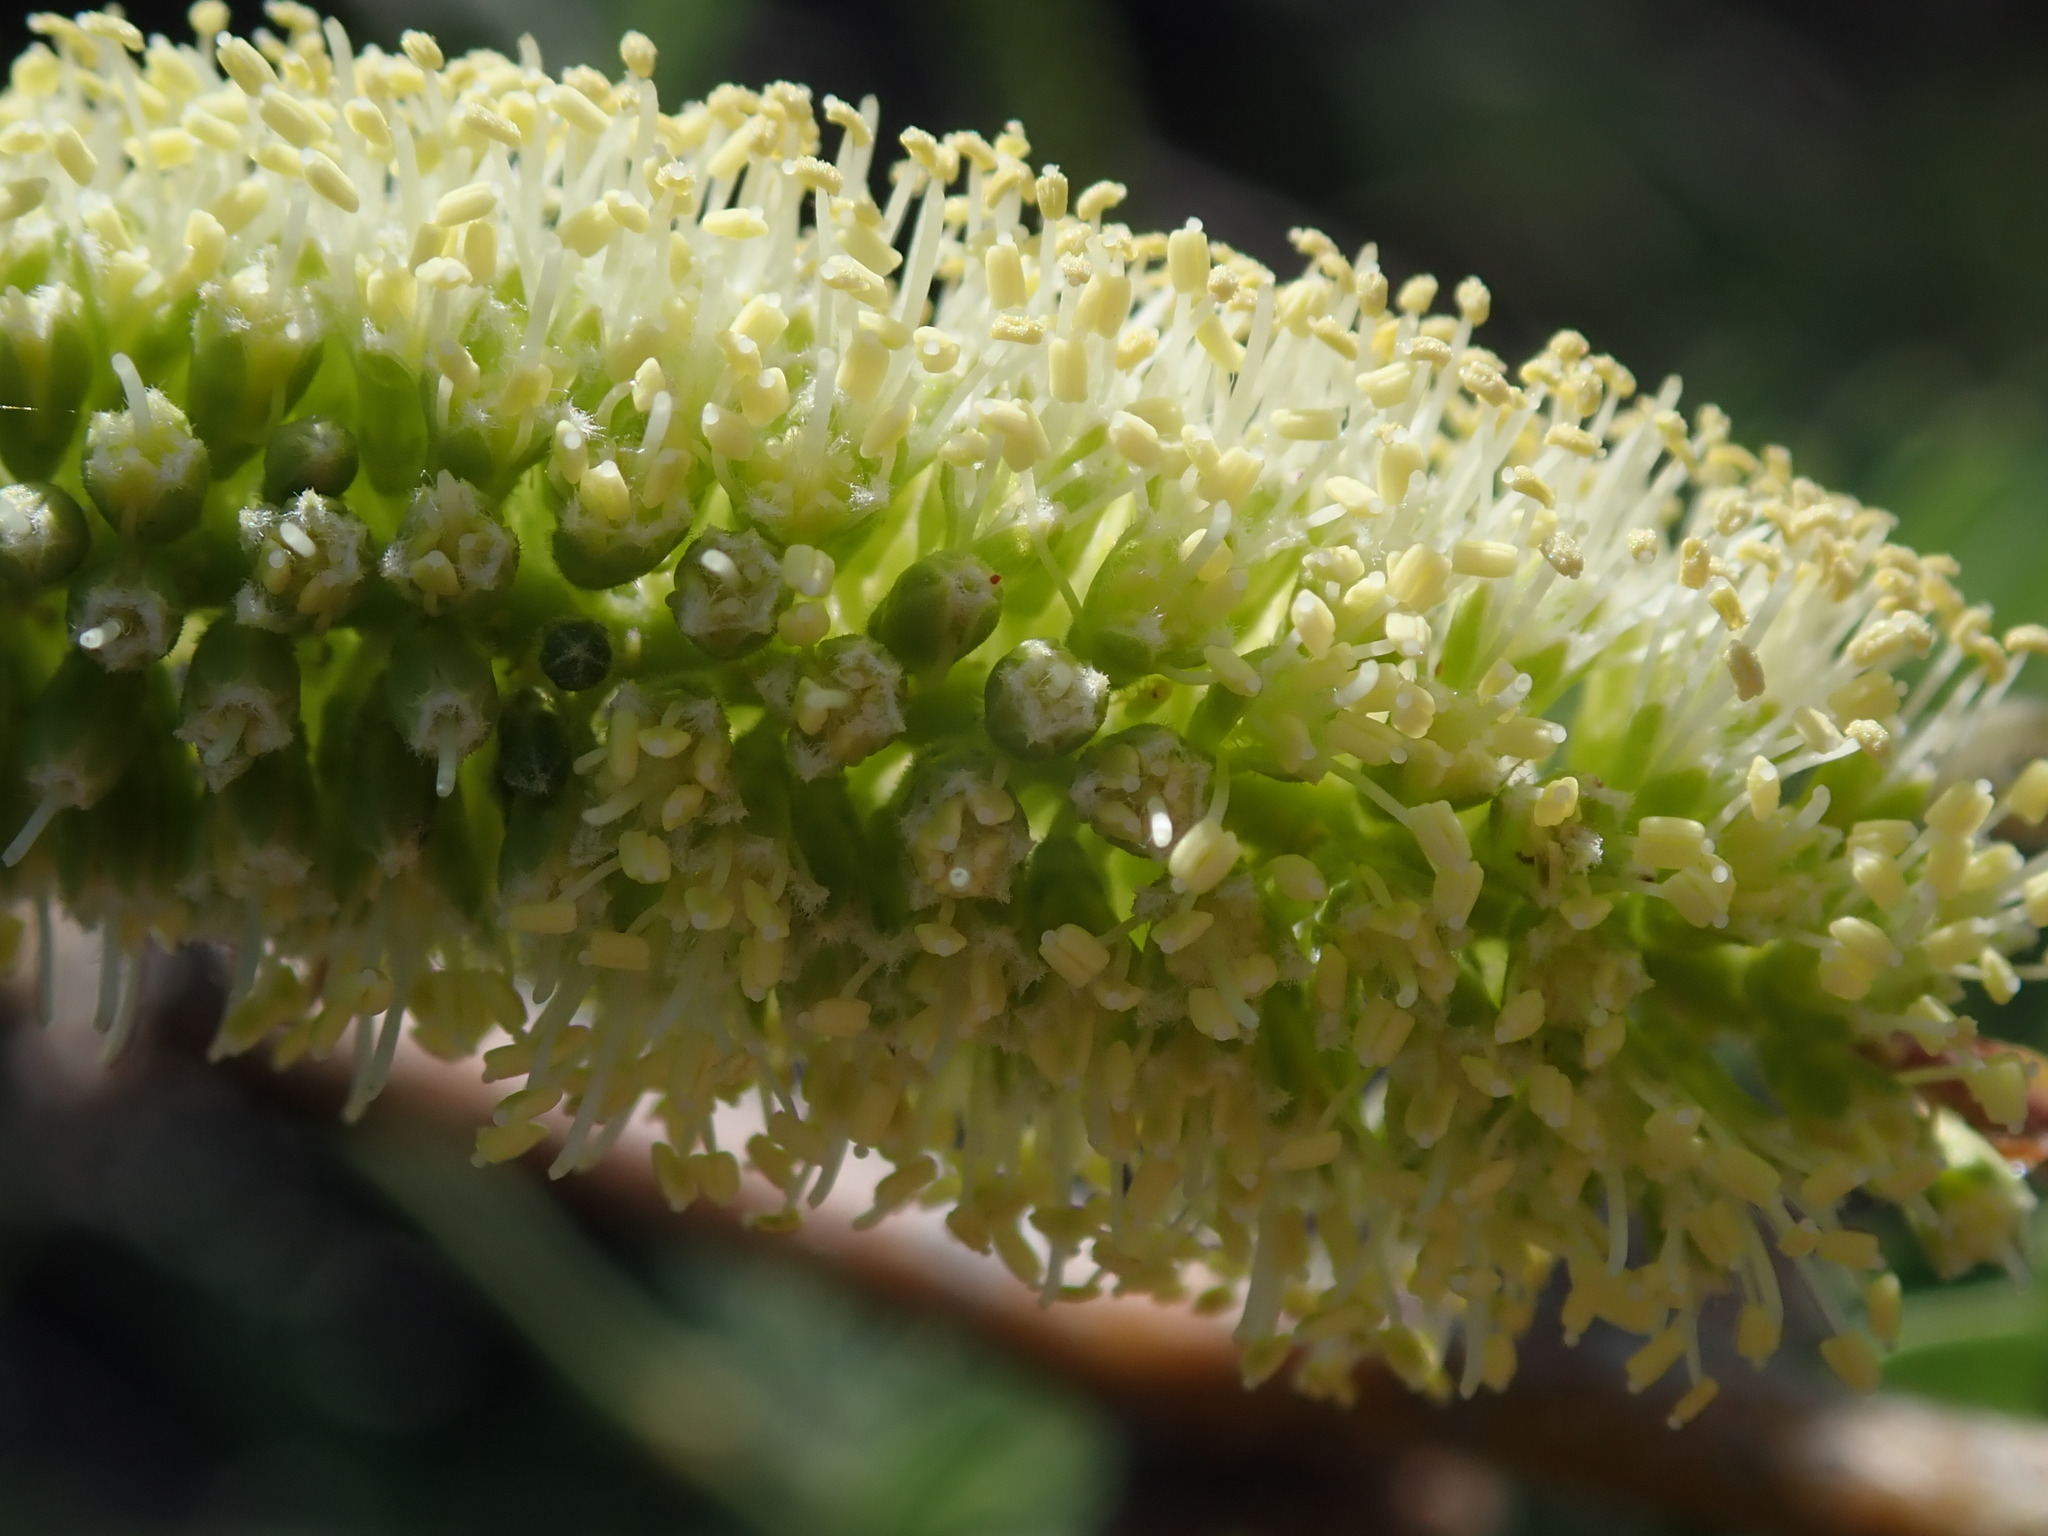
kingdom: Plantae
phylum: Tracheophyta
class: Magnoliopsida
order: Fabales
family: Fabaceae
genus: Prosopis
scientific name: Prosopis velutina
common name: Velvet mesquite
